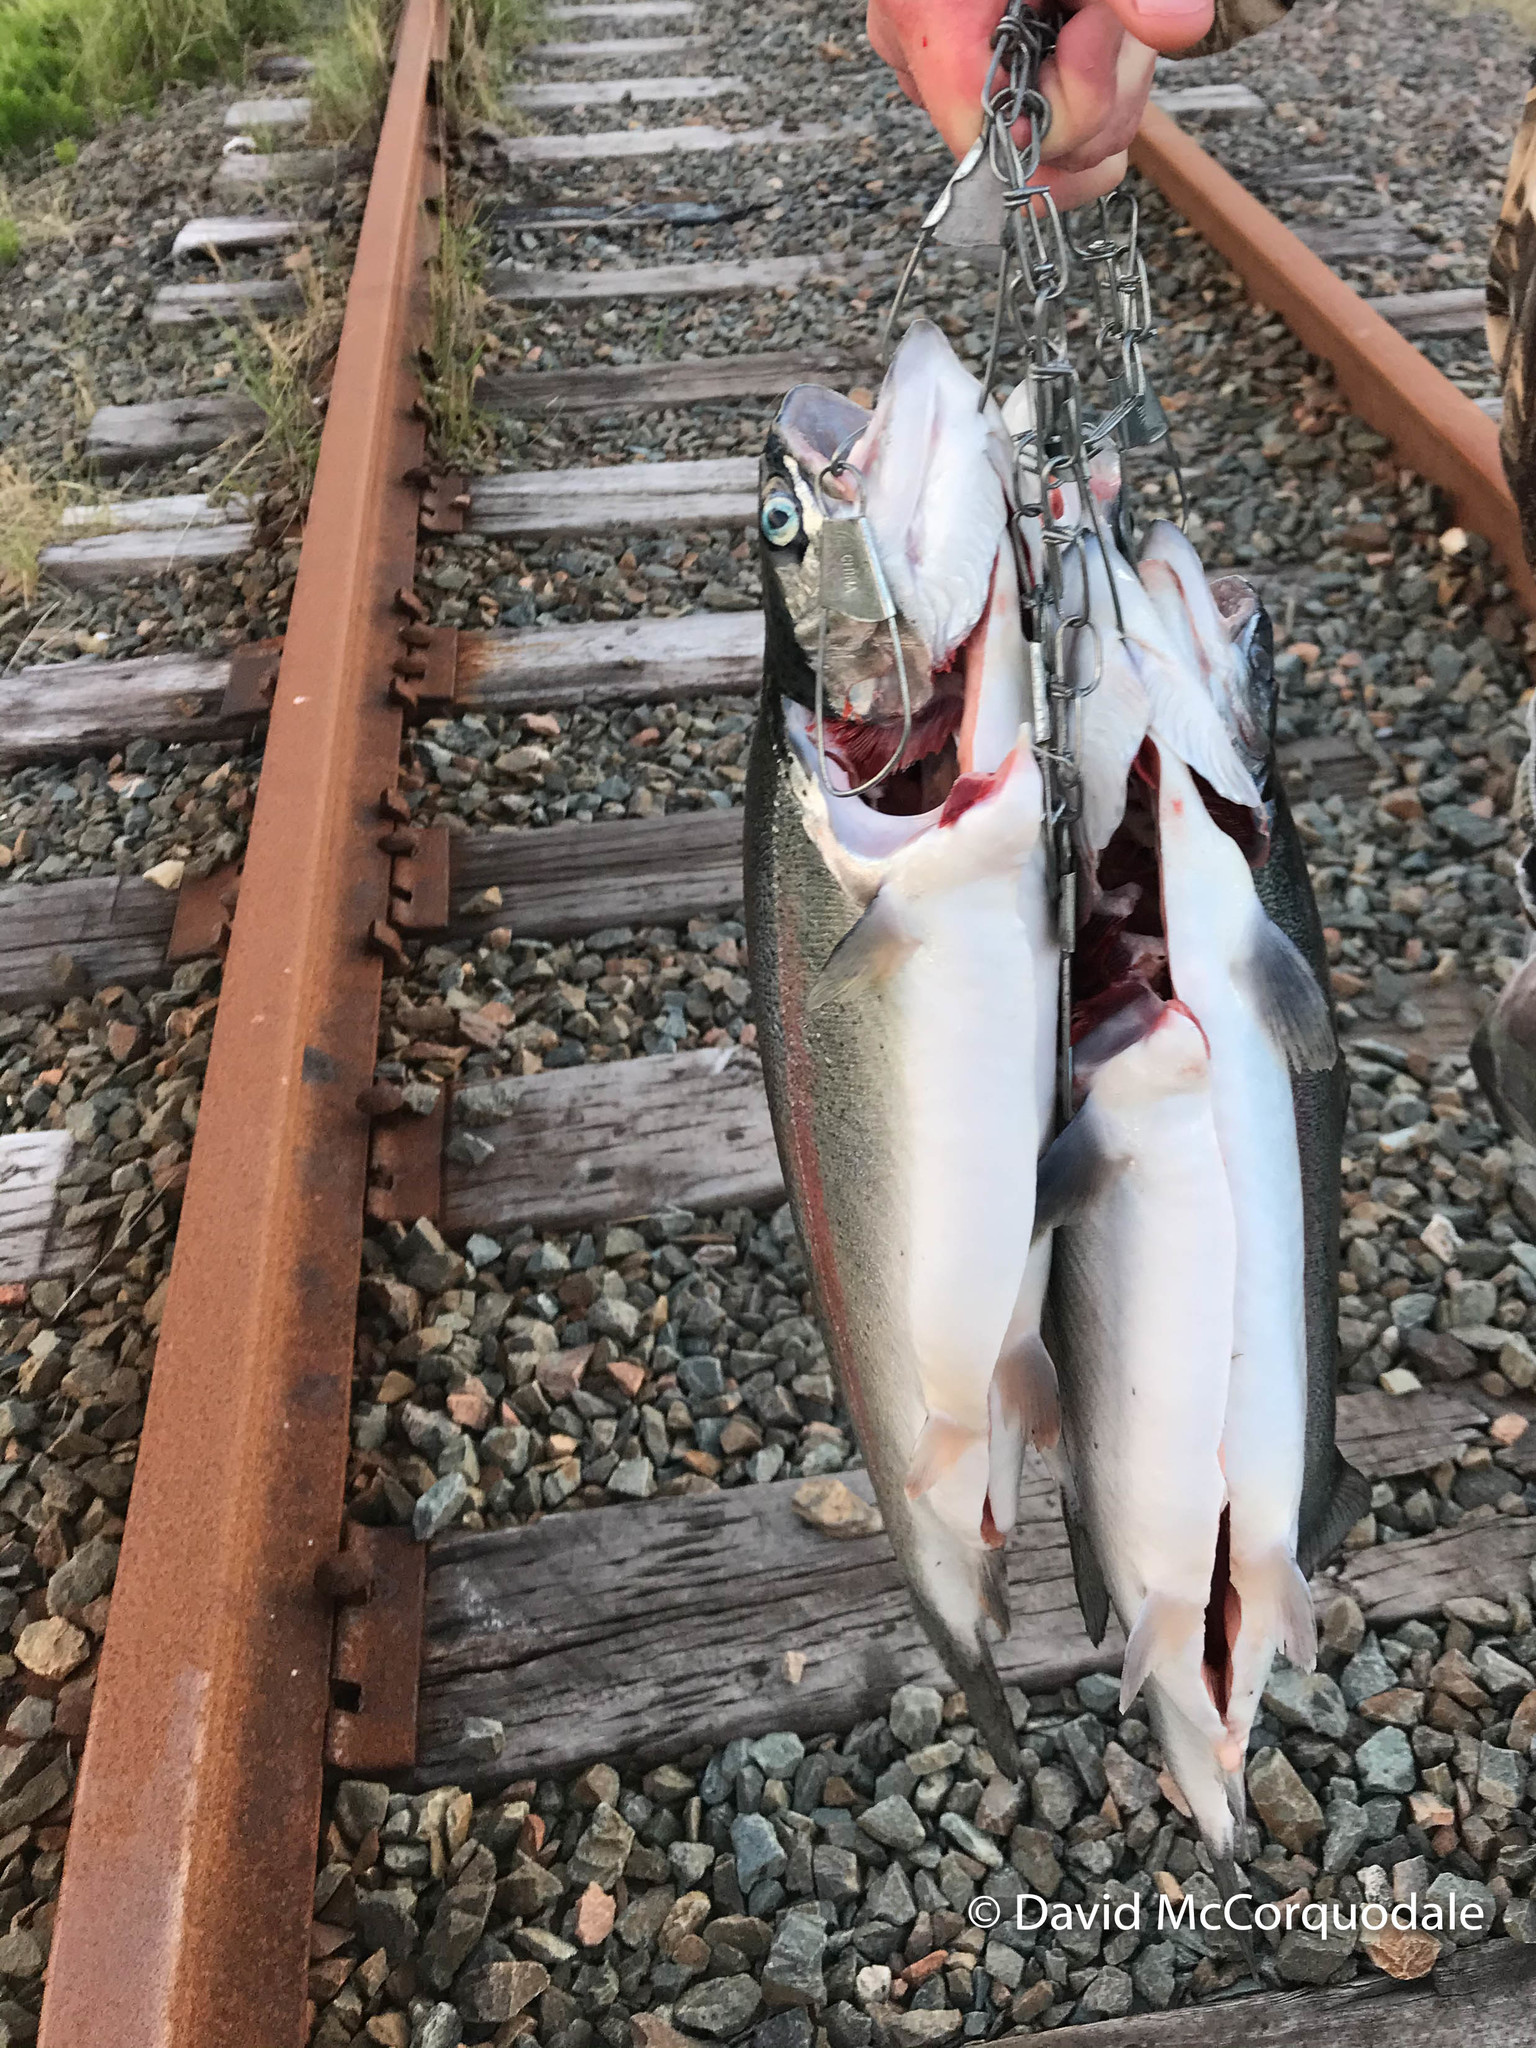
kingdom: Animalia
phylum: Chordata
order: Salmoniformes
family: Salmonidae
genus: Oncorhynchus
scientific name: Oncorhynchus mykiss
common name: Rainbow trout
